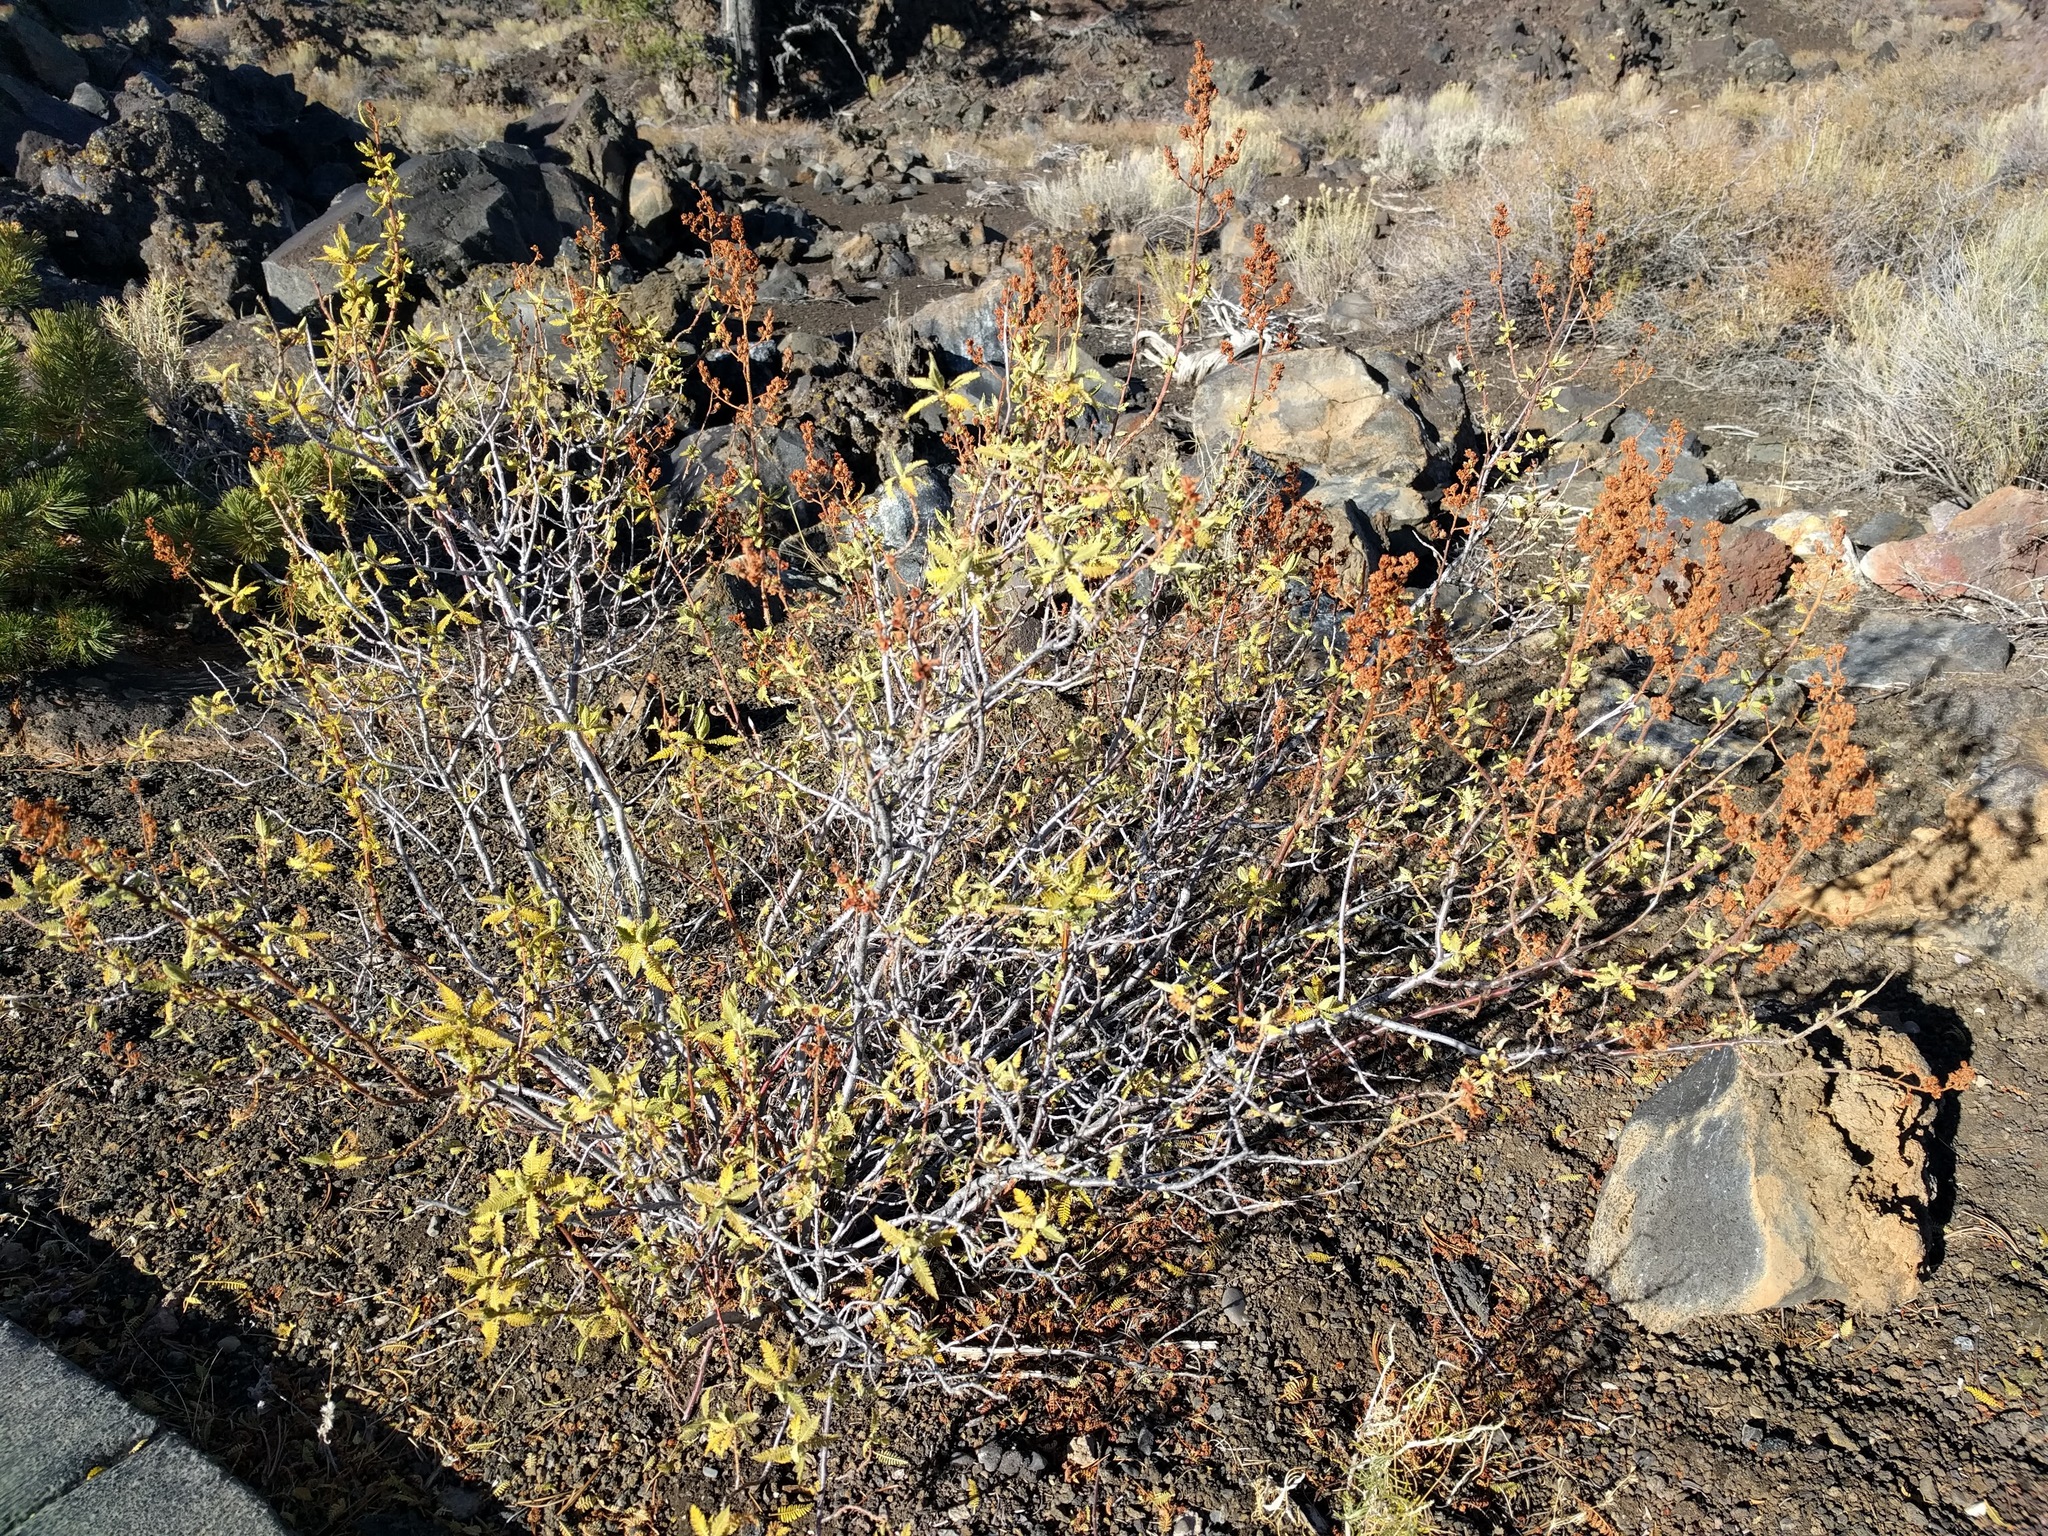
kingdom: Plantae
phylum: Tracheophyta
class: Magnoliopsida
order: Rosales
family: Rosaceae
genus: Chamaebatiaria
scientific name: Chamaebatiaria millefolium
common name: Fernbush
